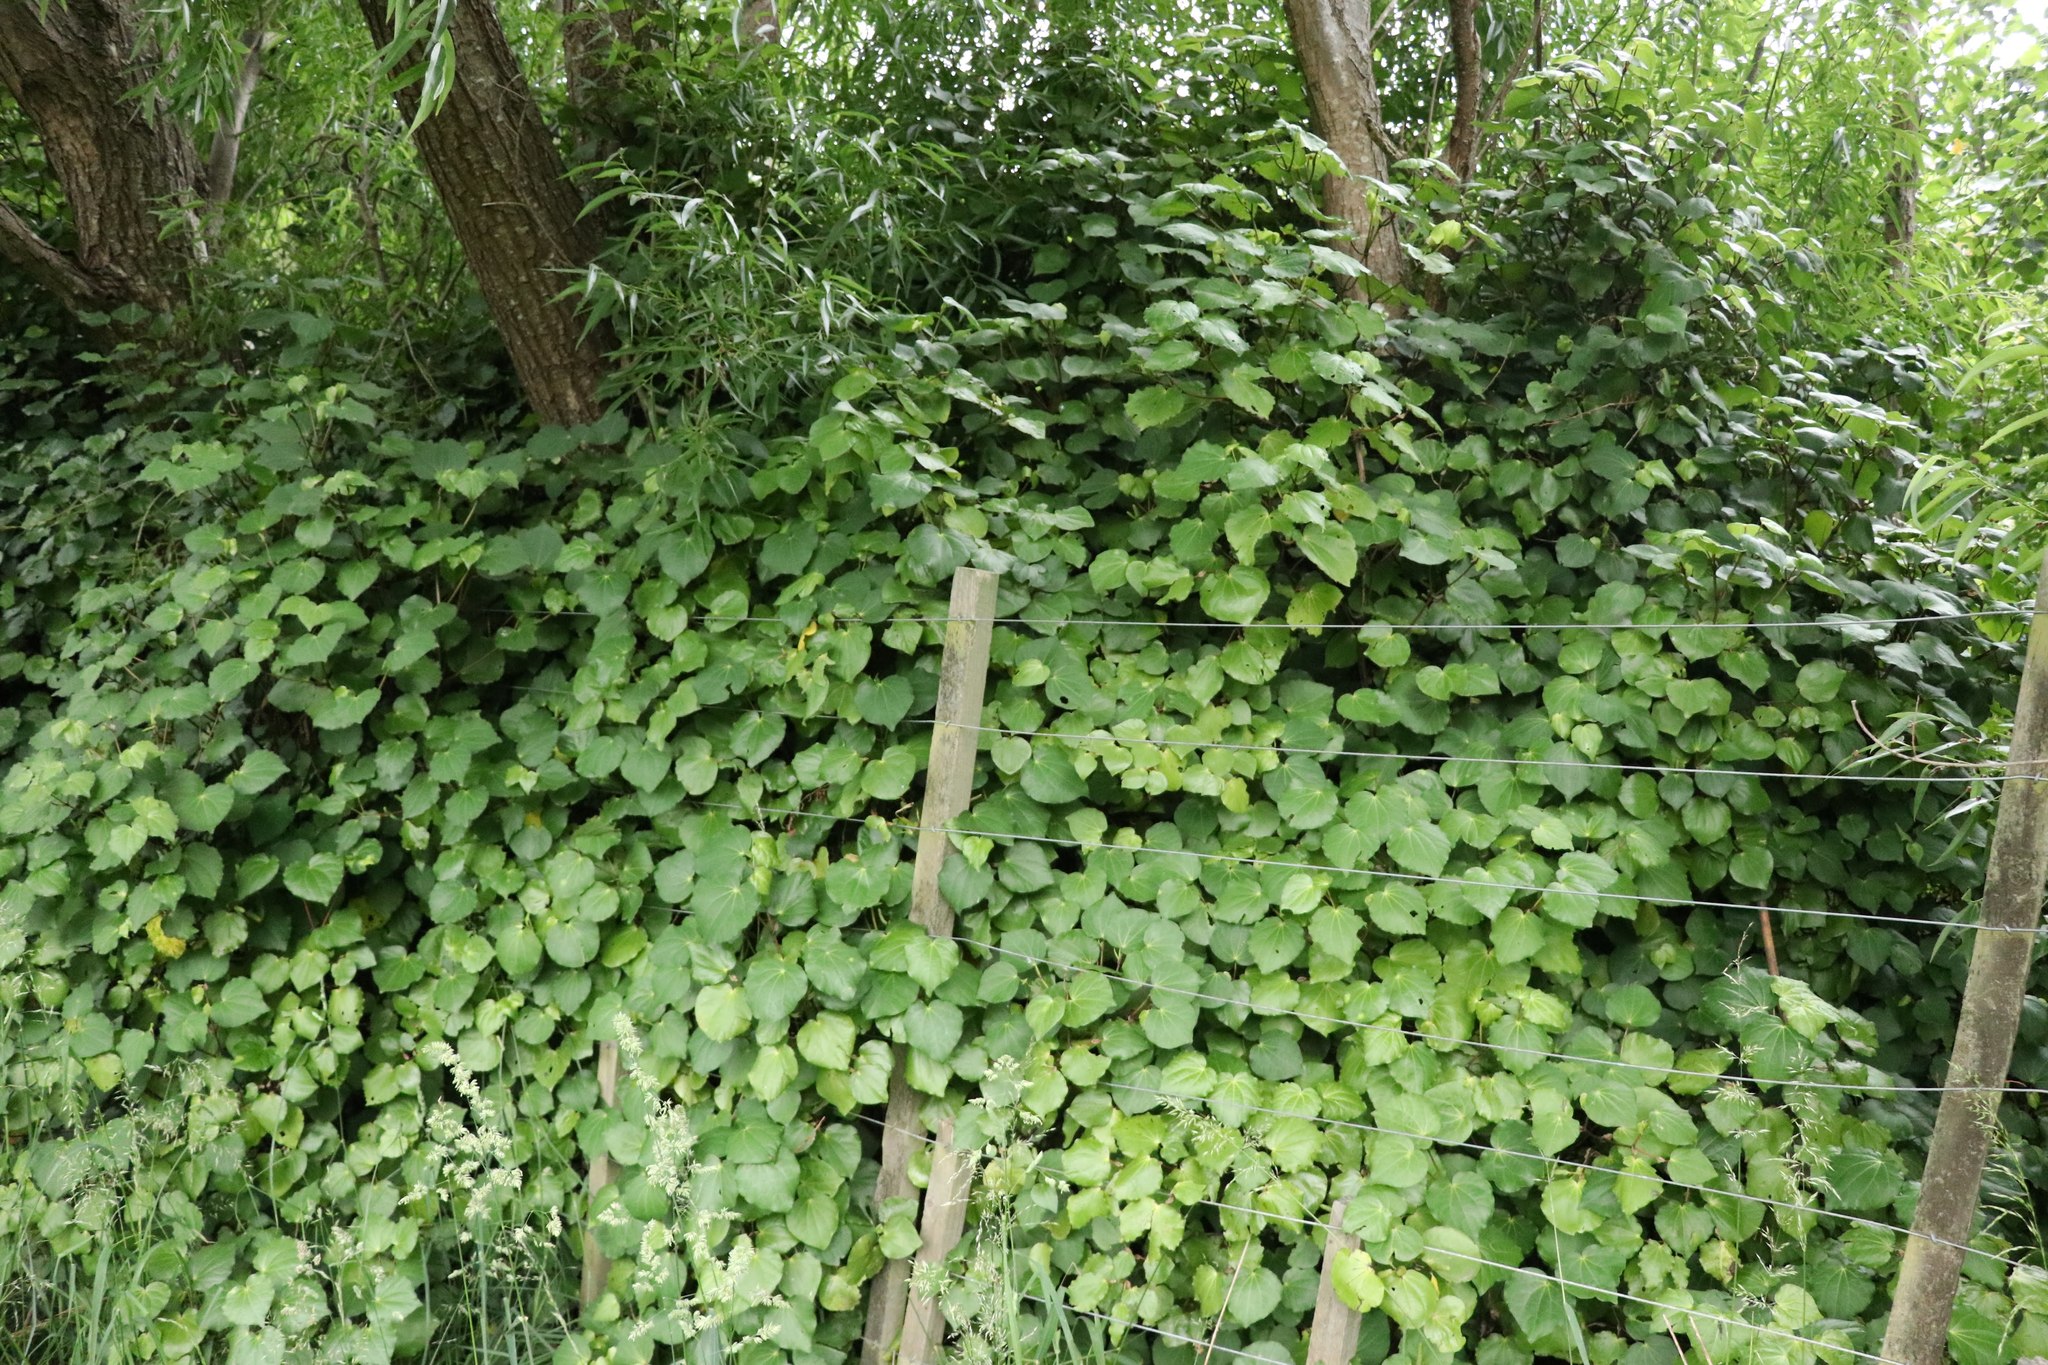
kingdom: Plantae
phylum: Tracheophyta
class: Magnoliopsida
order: Piperales
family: Piperaceae
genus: Macropiper
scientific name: Macropiper excelsum
